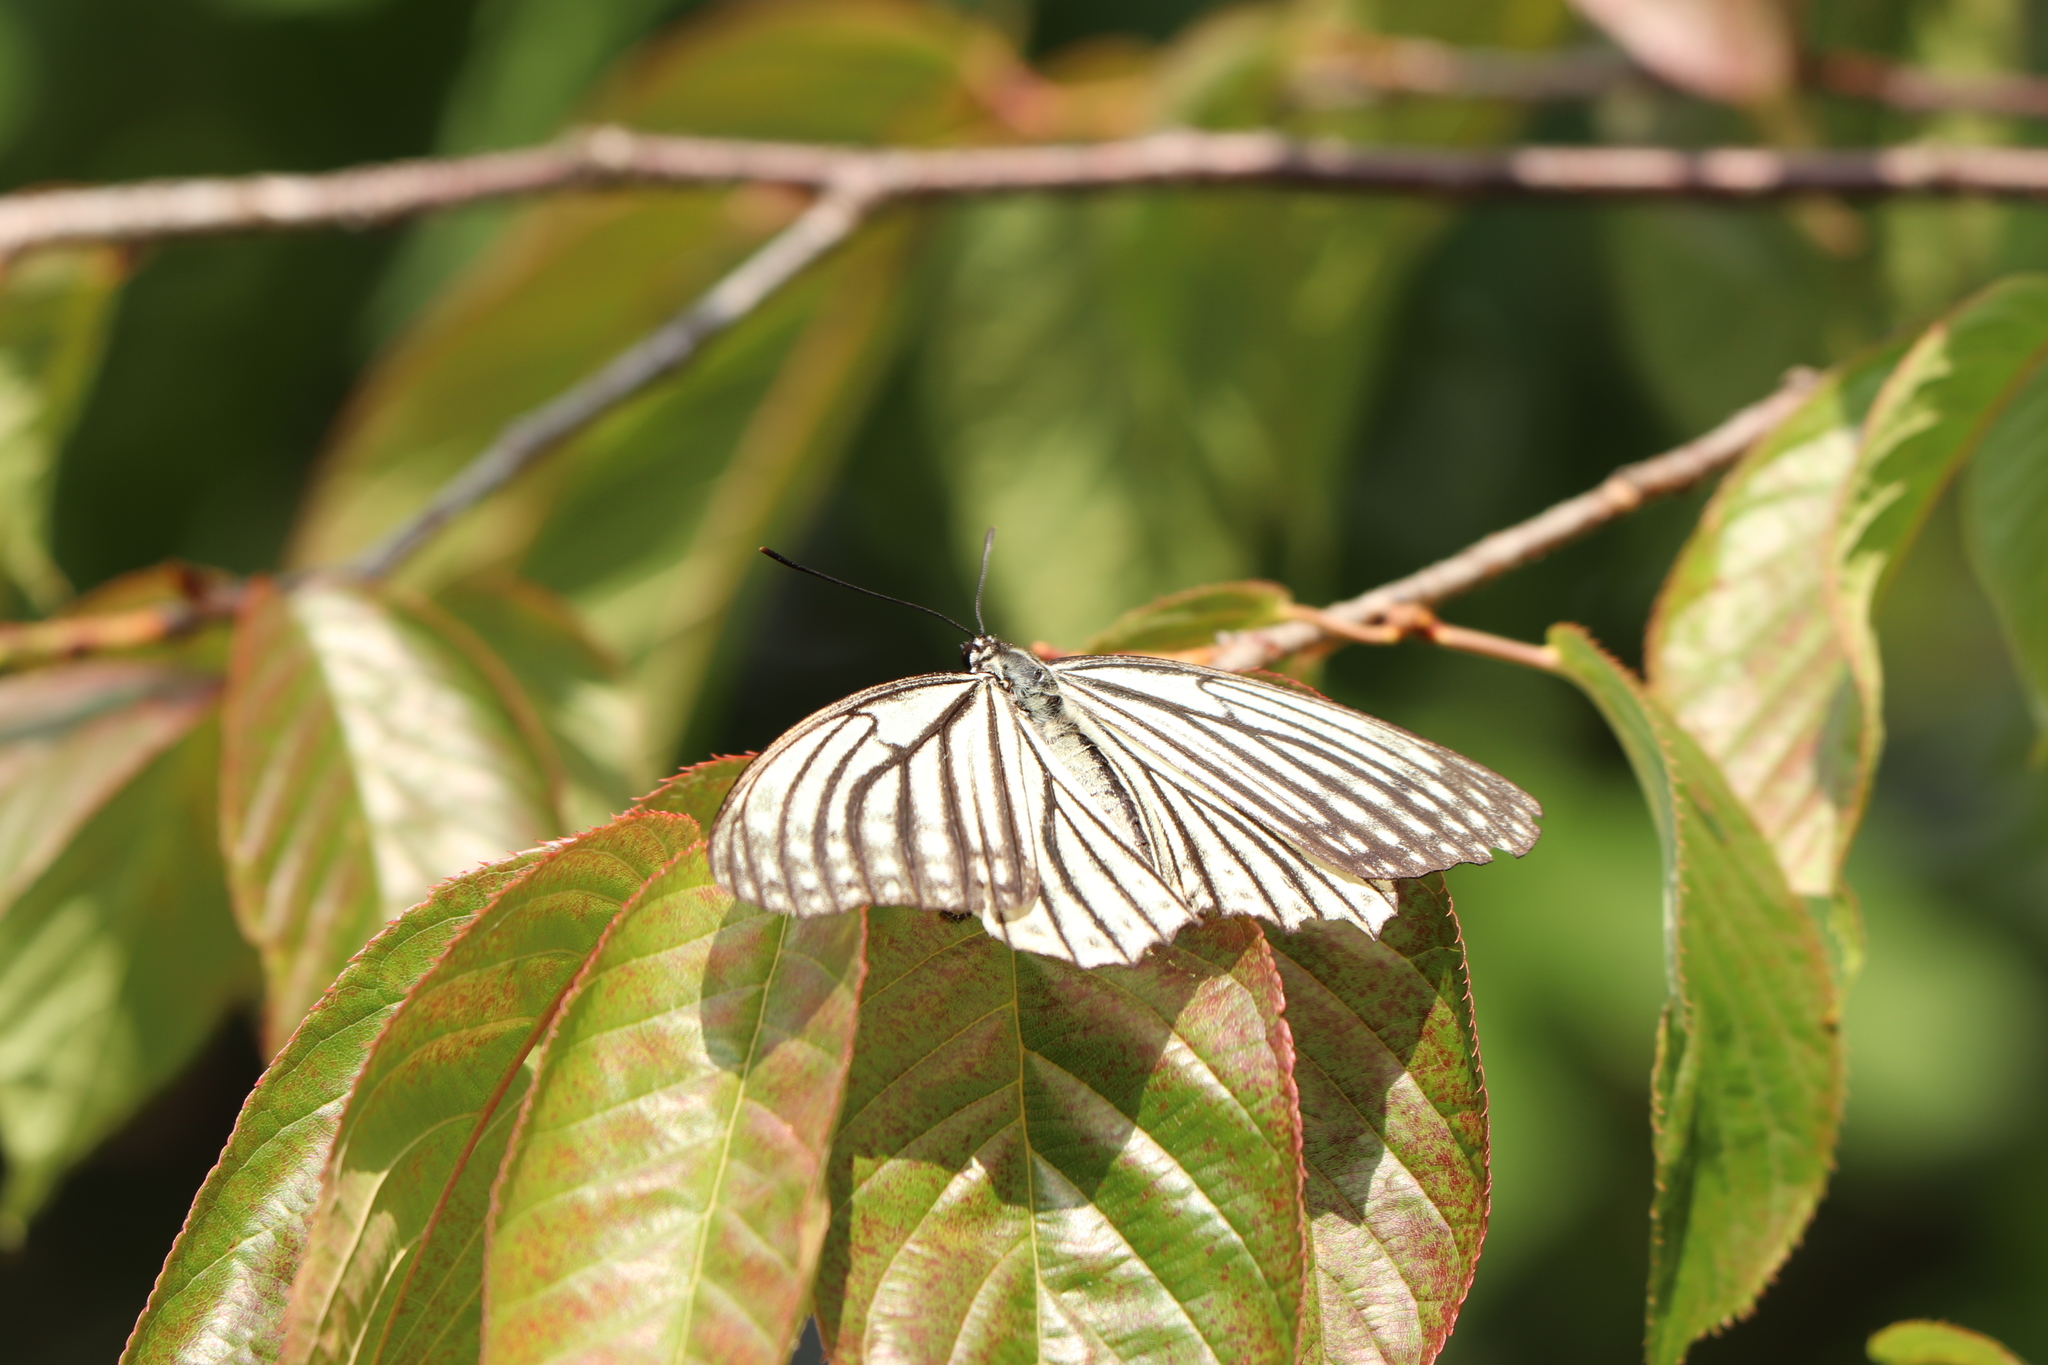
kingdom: Animalia
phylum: Arthropoda
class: Insecta
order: Lepidoptera
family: Nymphalidae
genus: Hestina
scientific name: Hestina assimilis
